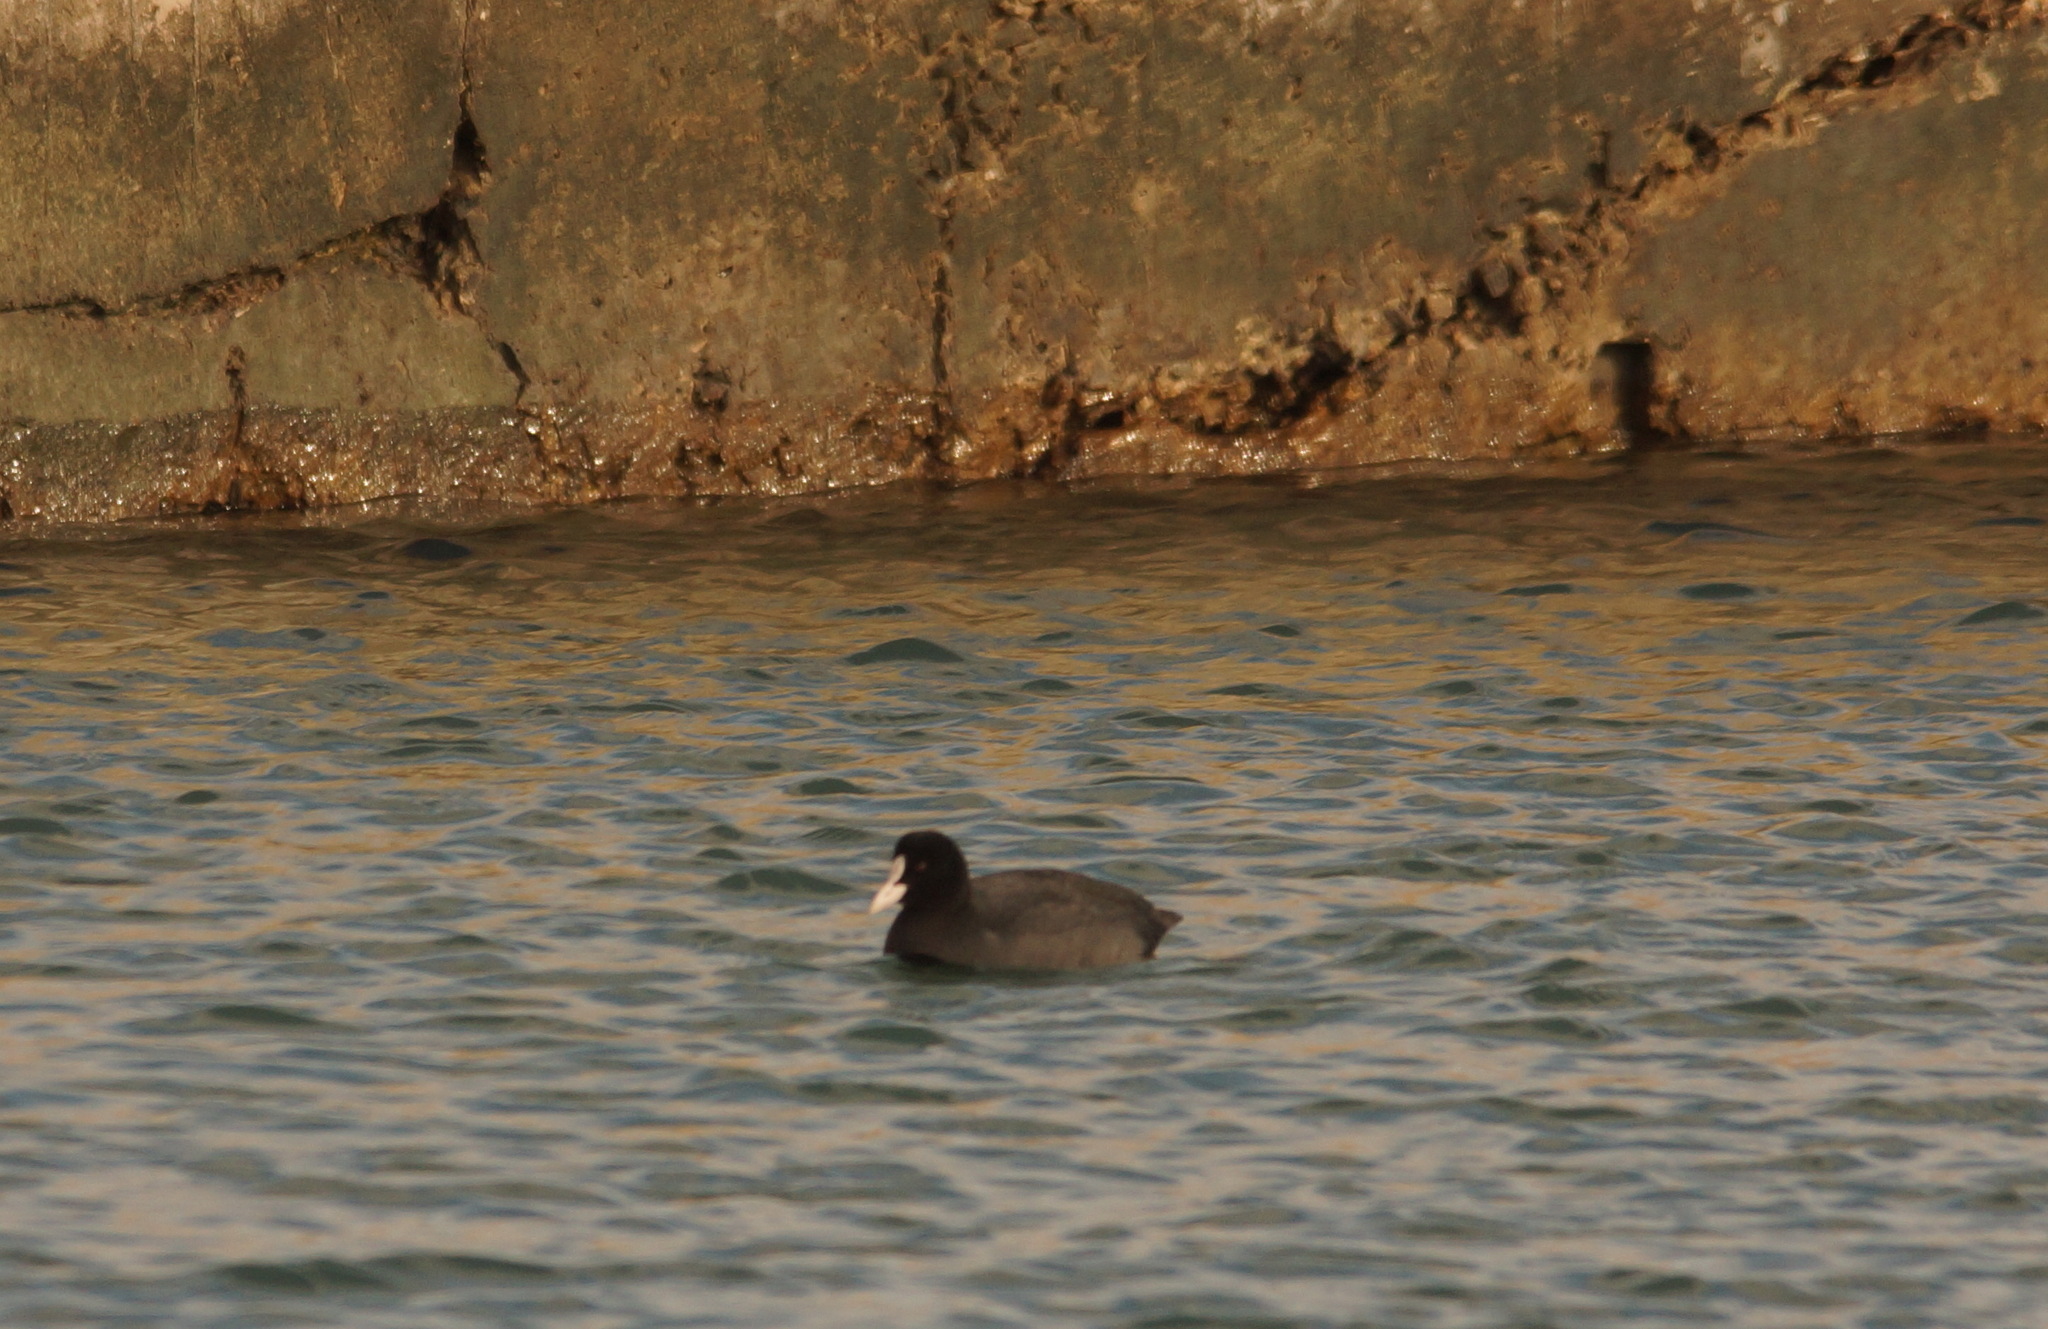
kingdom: Animalia
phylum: Chordata
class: Aves
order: Gruiformes
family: Rallidae
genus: Fulica
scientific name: Fulica atra
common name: Eurasian coot
